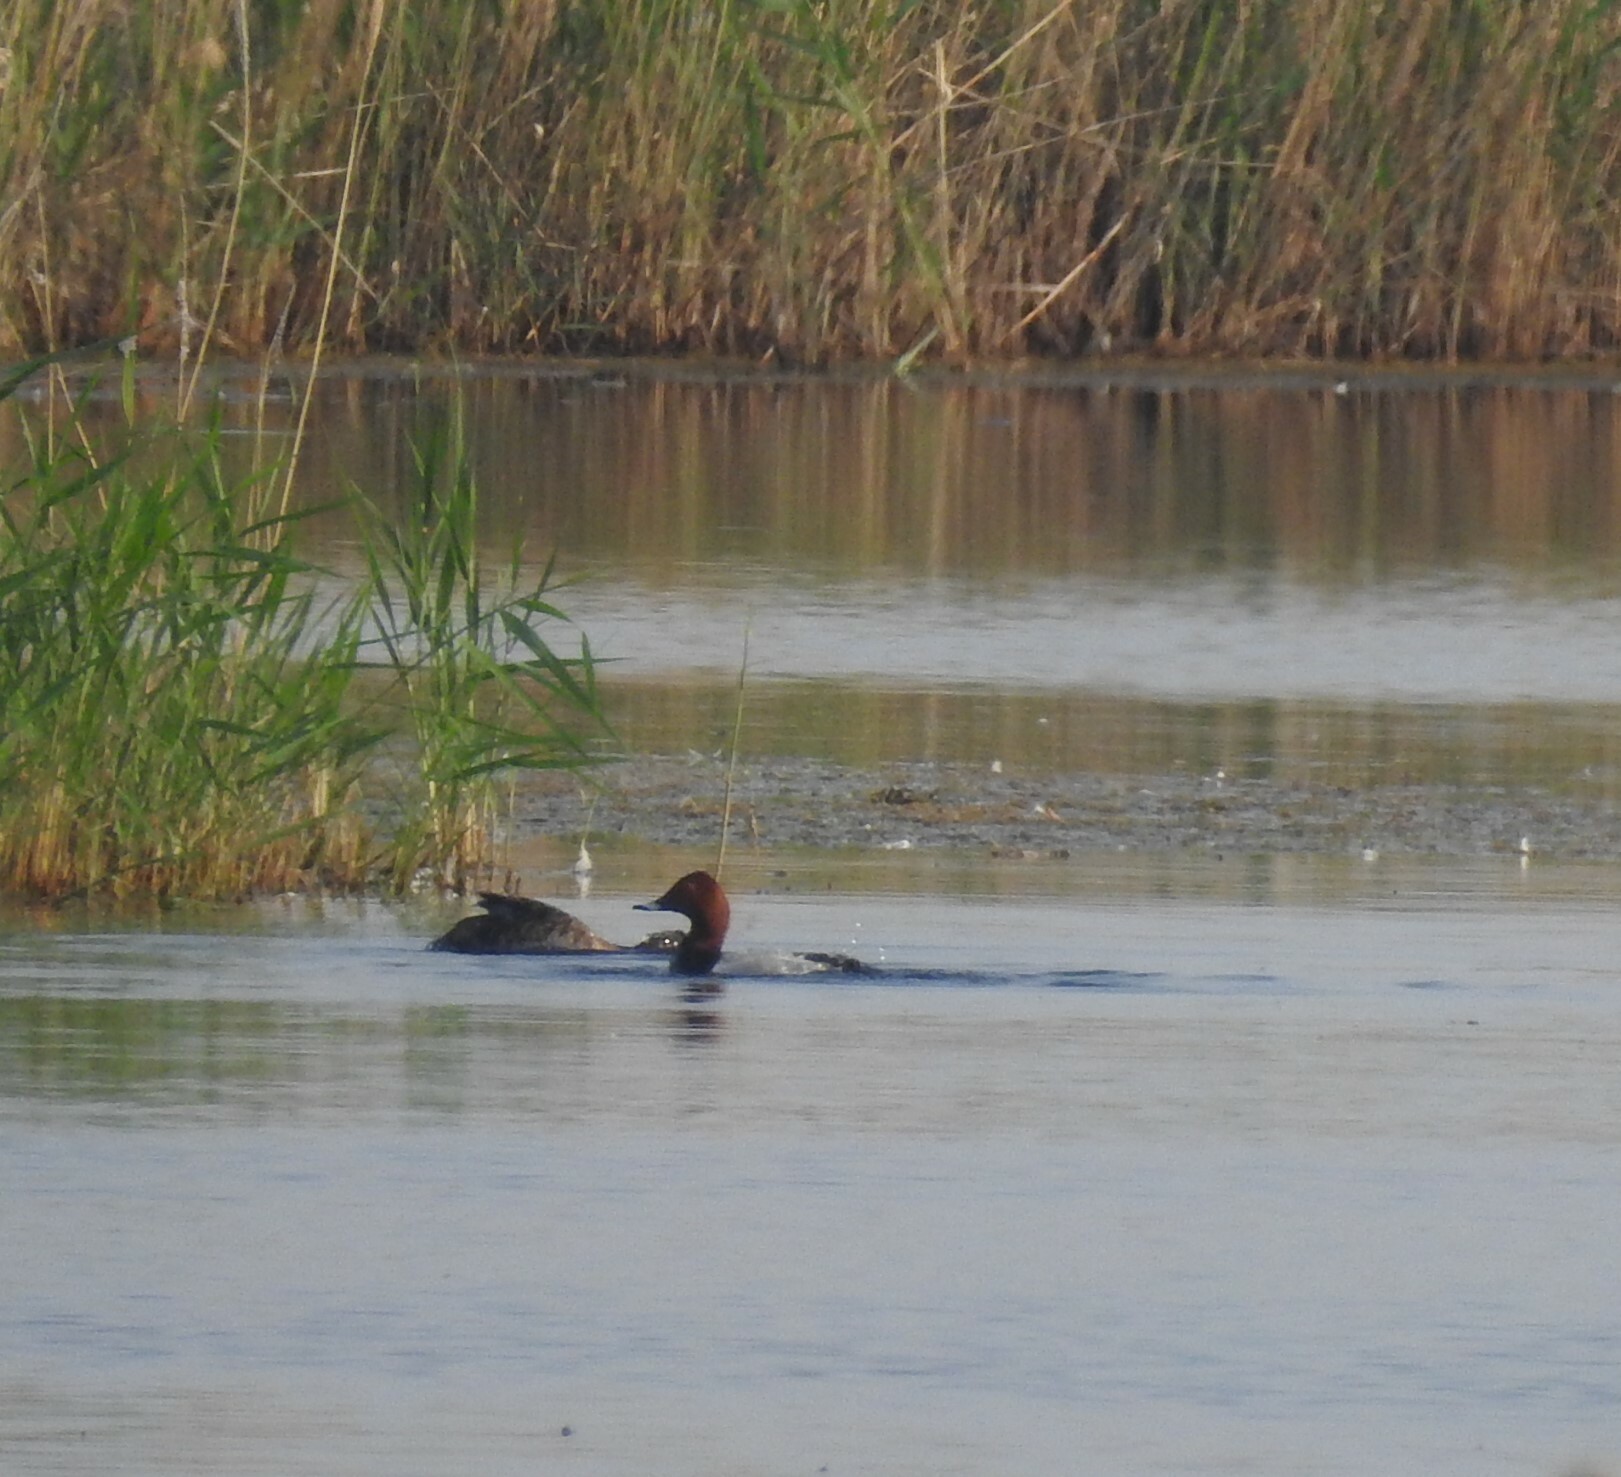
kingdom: Animalia
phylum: Chordata
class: Aves
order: Anseriformes
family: Anatidae
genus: Aythya
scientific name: Aythya ferina
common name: Common pochard
